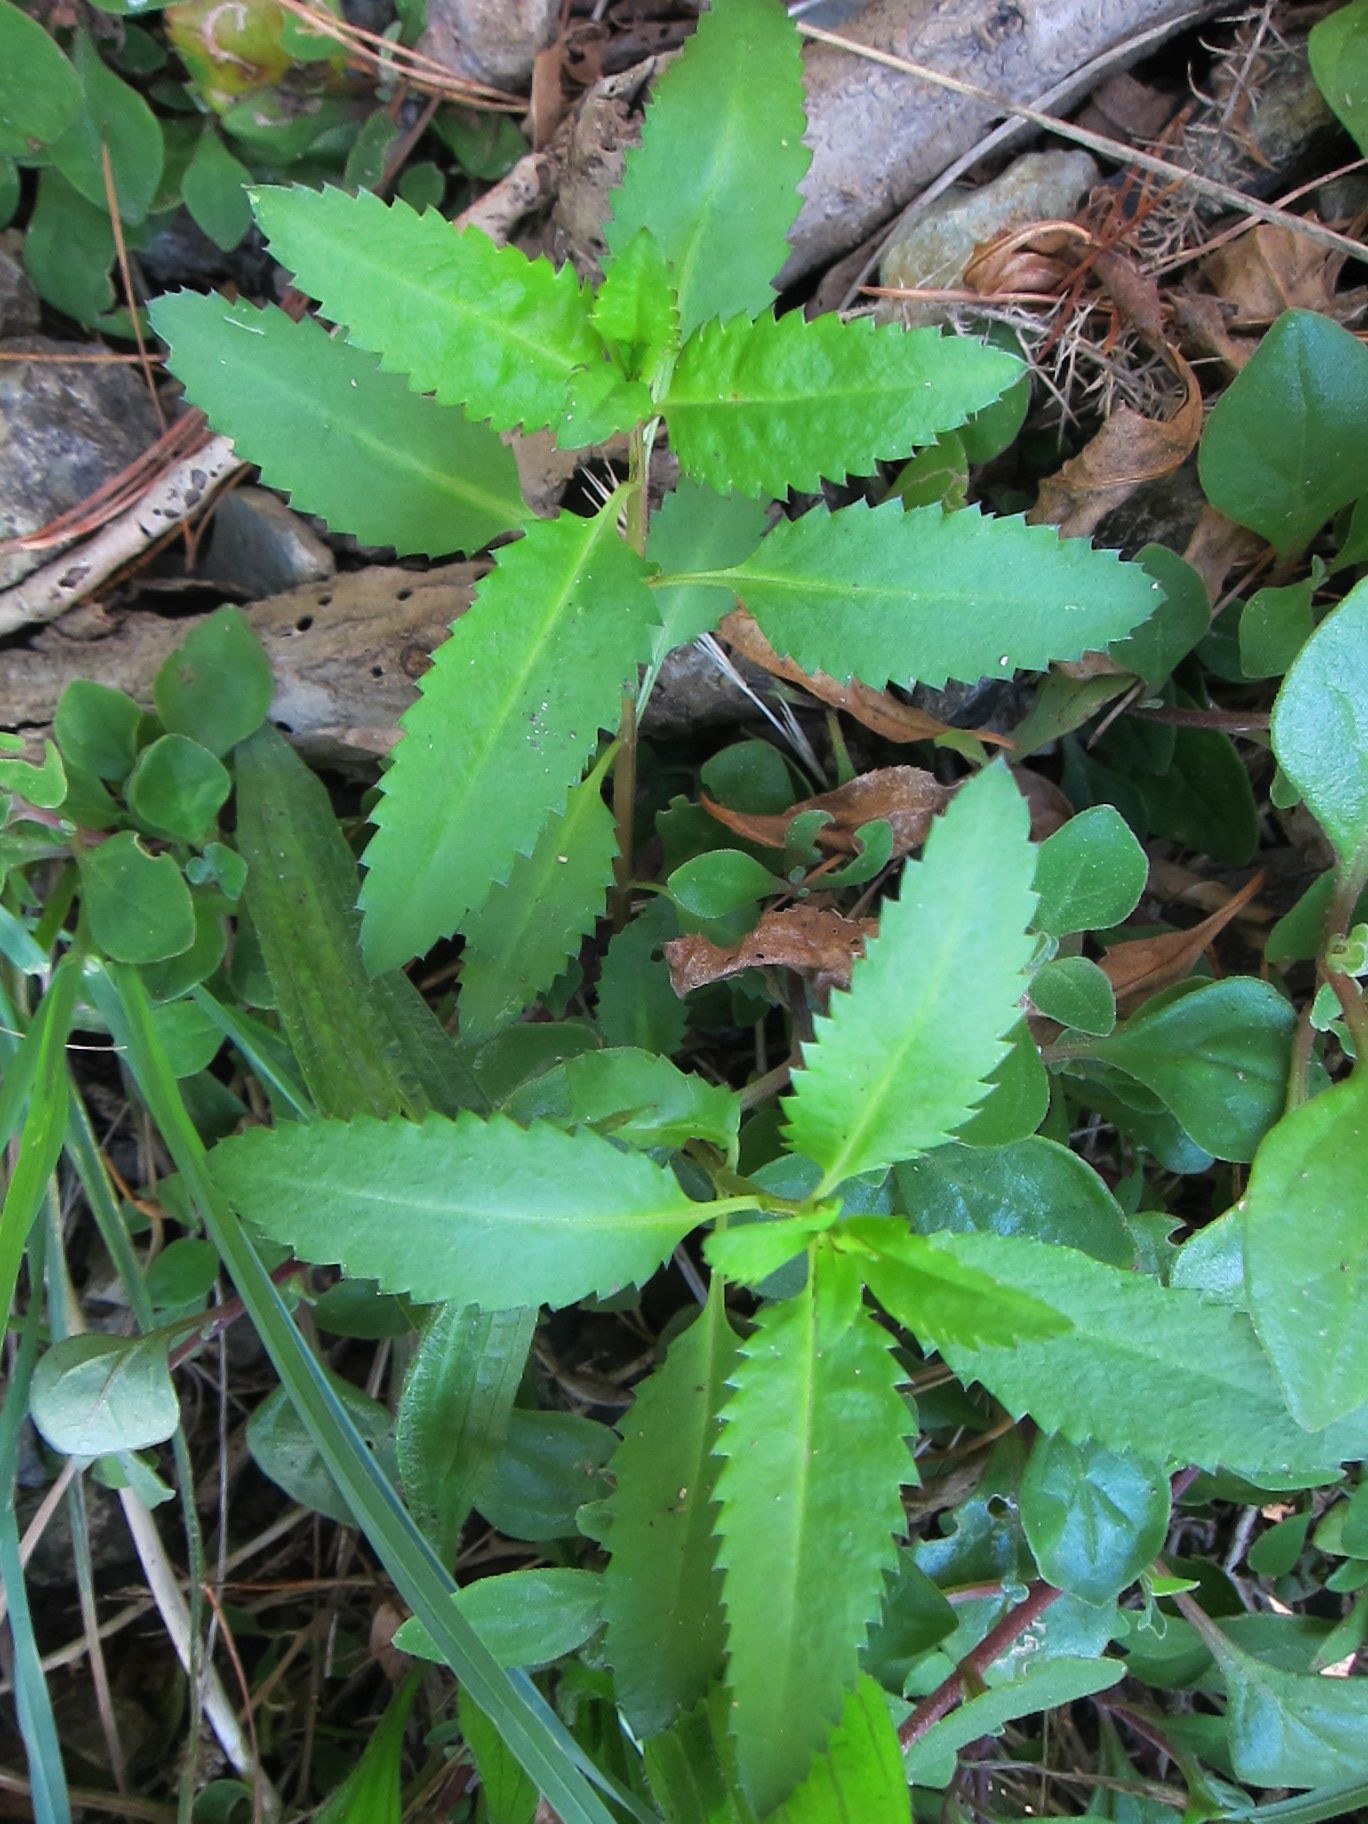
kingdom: Plantae
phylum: Tracheophyta
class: Magnoliopsida
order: Saxifragales
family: Haloragaceae
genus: Haloragis
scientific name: Haloragis erecta
